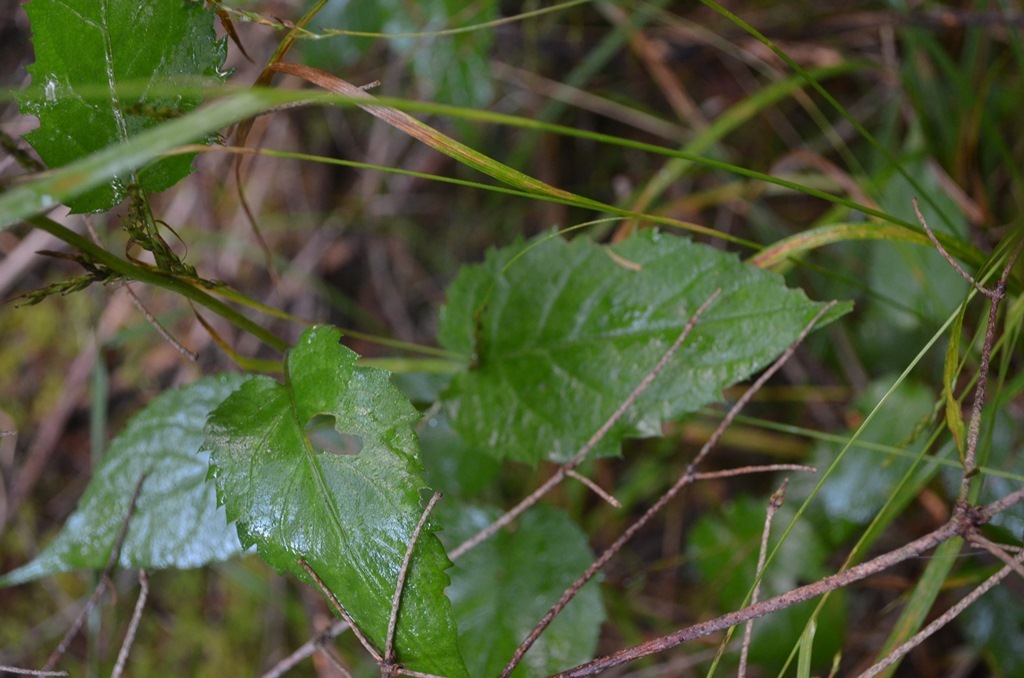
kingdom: Plantae
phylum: Tracheophyta
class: Magnoliopsida
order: Asterales
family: Asteraceae
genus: Eurybia
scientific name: Eurybia chlorolepis
